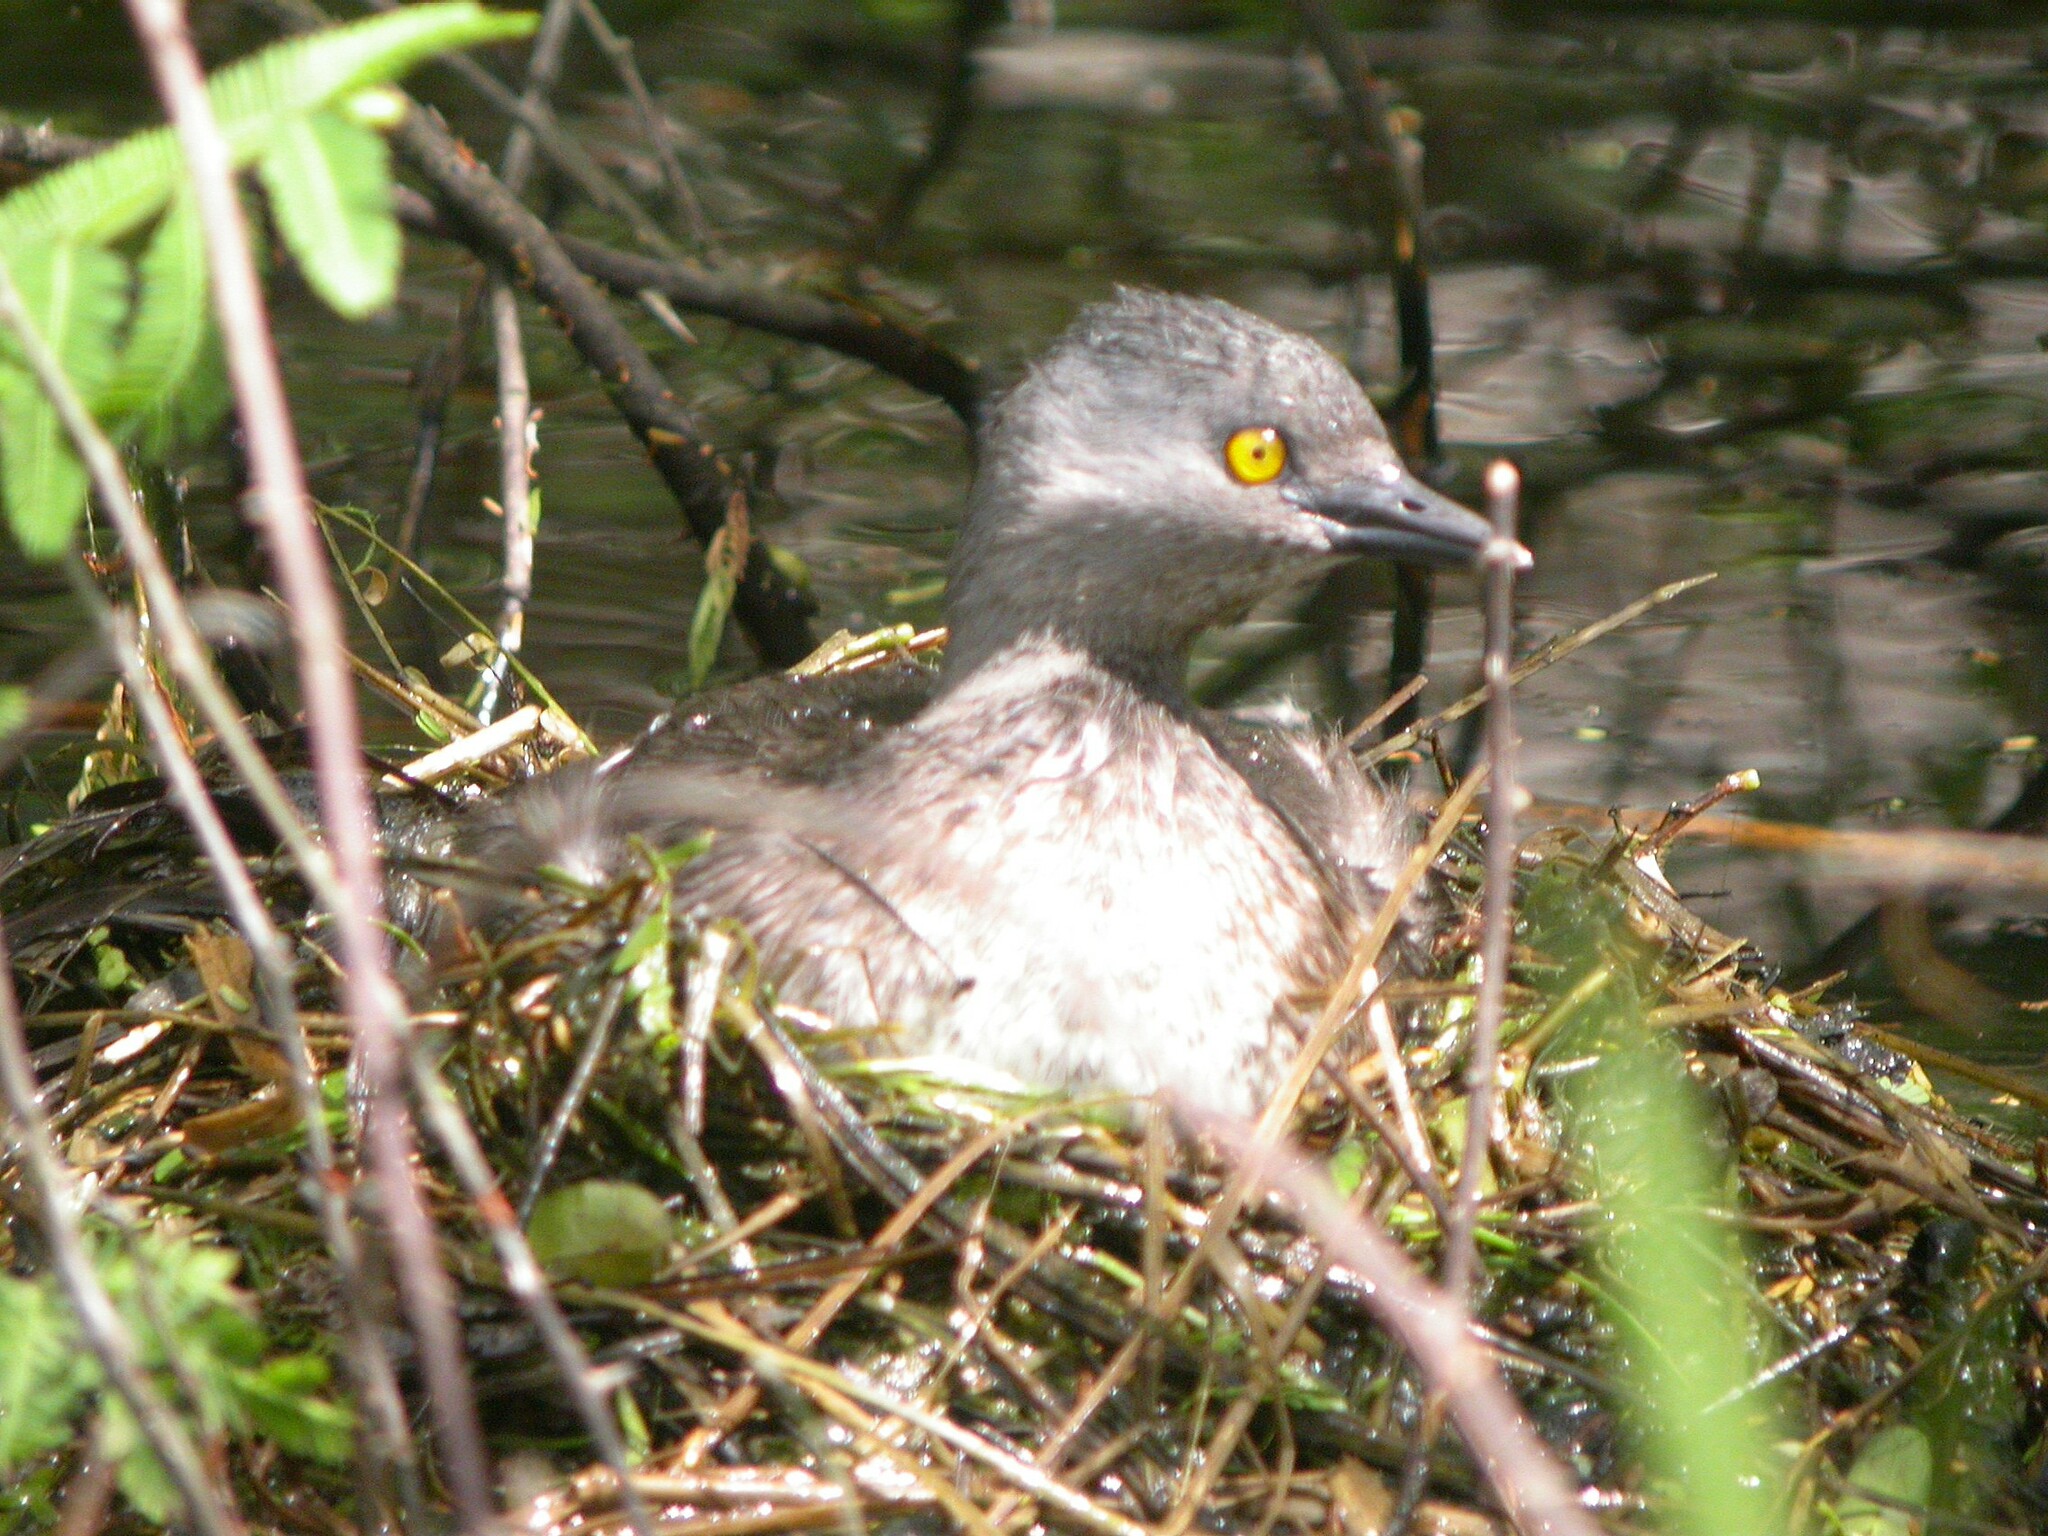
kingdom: Animalia
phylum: Chordata
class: Aves
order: Podicipediformes
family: Podicipedidae
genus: Tachybaptus
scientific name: Tachybaptus dominicus
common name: Least grebe
